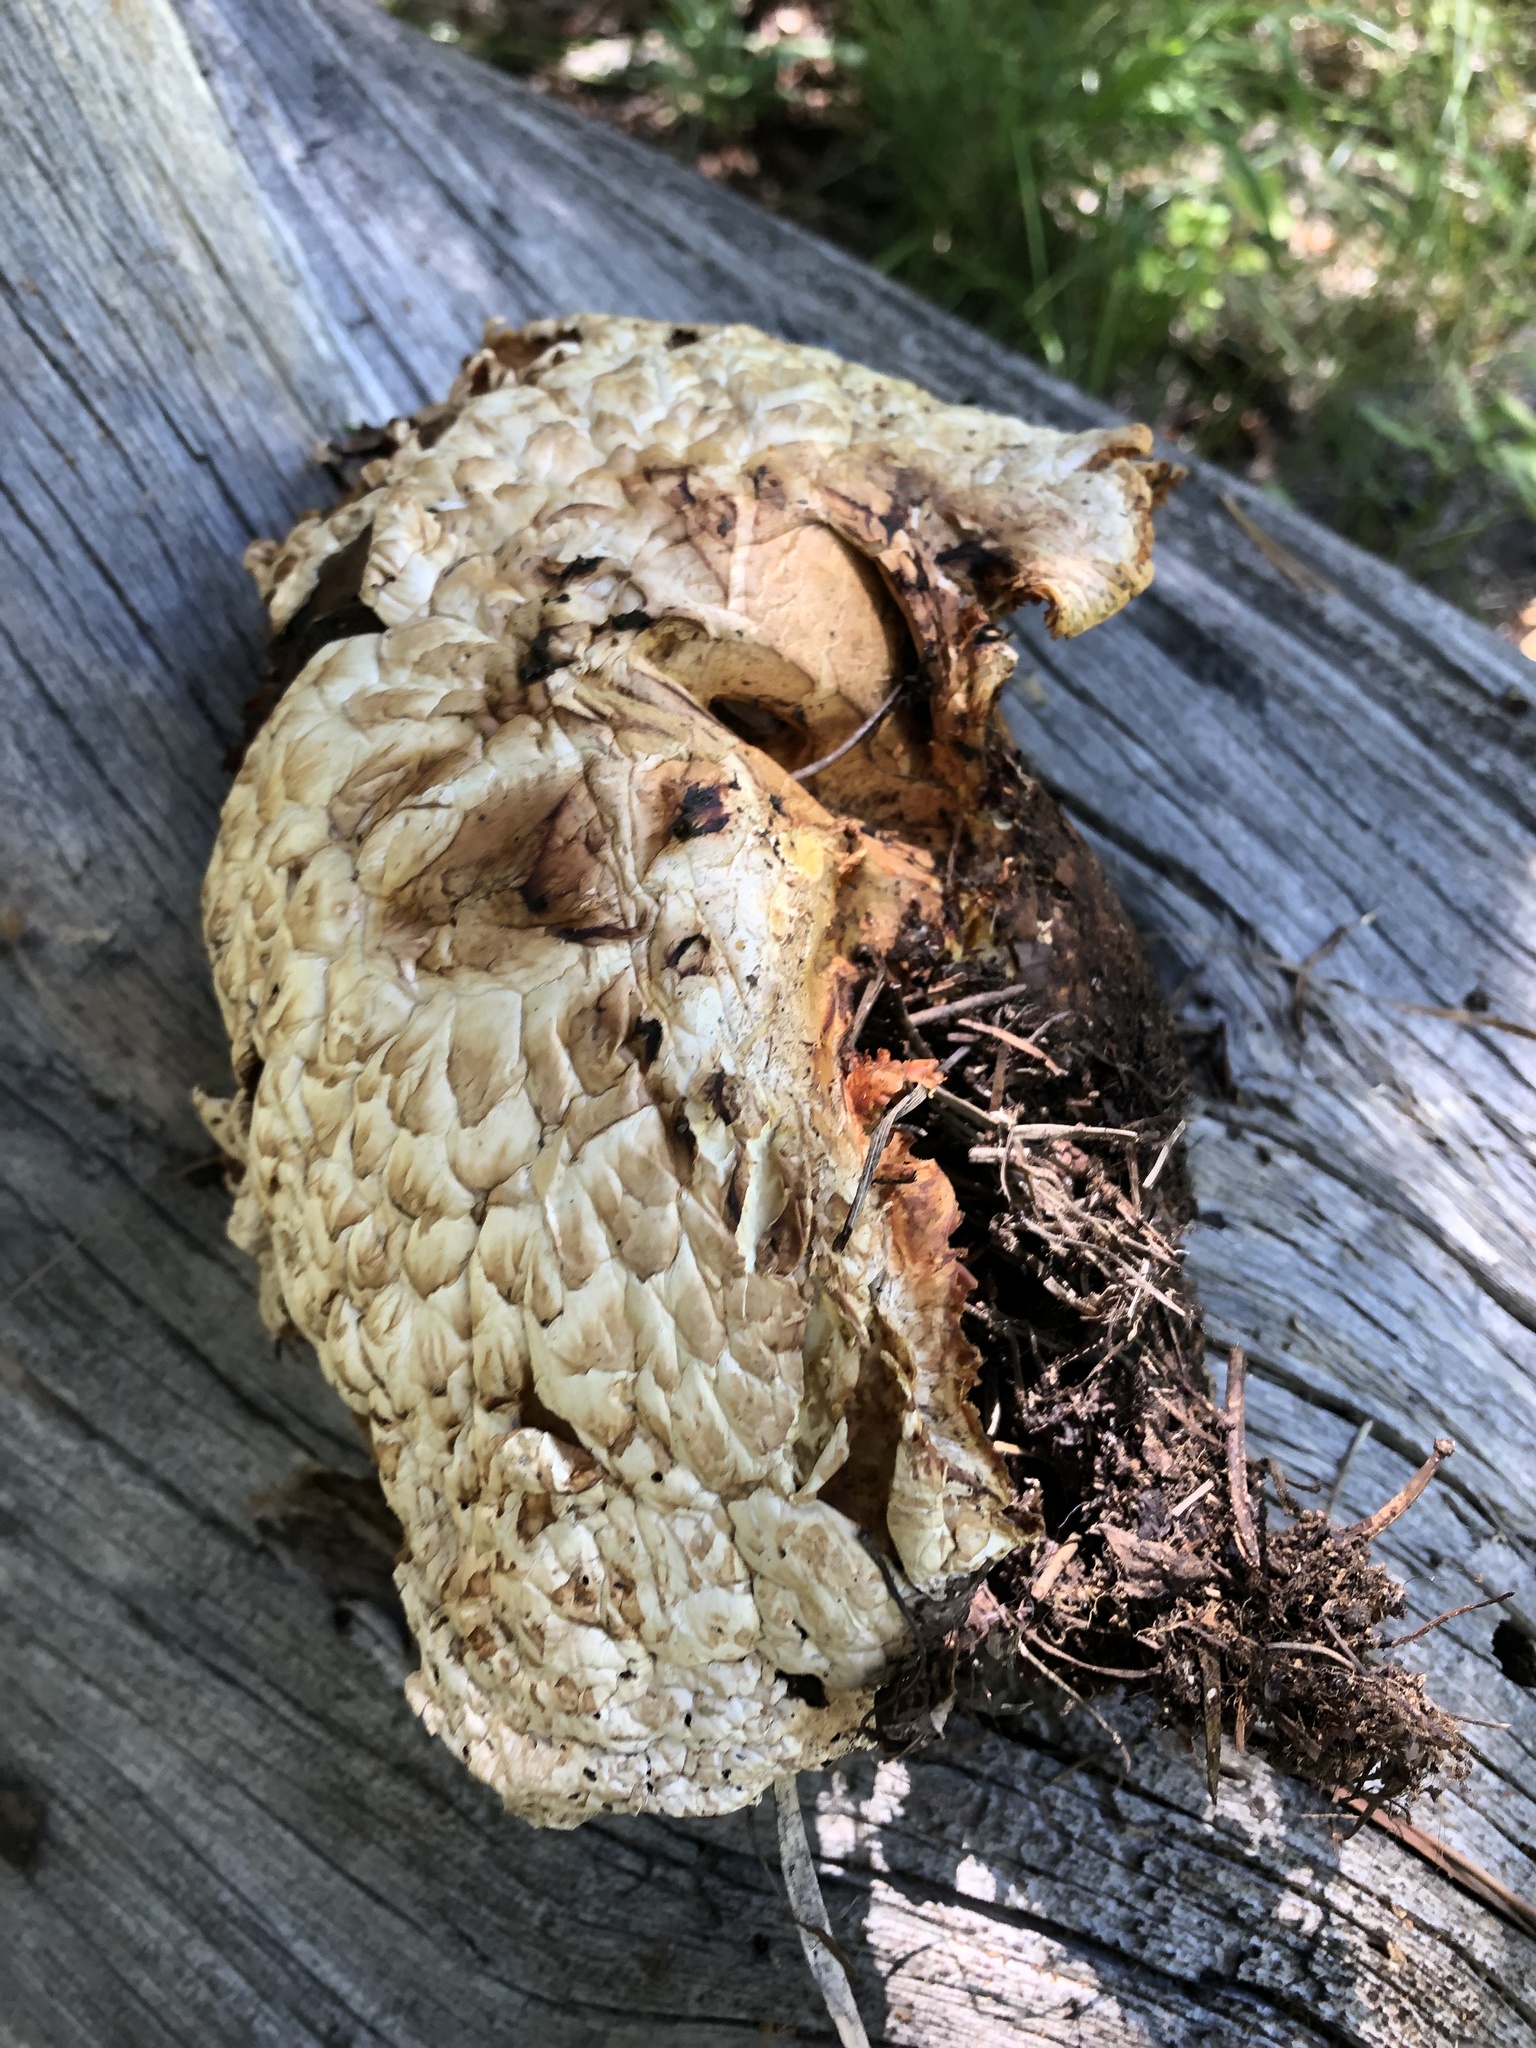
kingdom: Fungi
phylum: Basidiomycota
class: Agaricomycetes
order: Gloeophyllales
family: Gloeophyllaceae
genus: Neolentinus
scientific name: Neolentinus ponderosus
